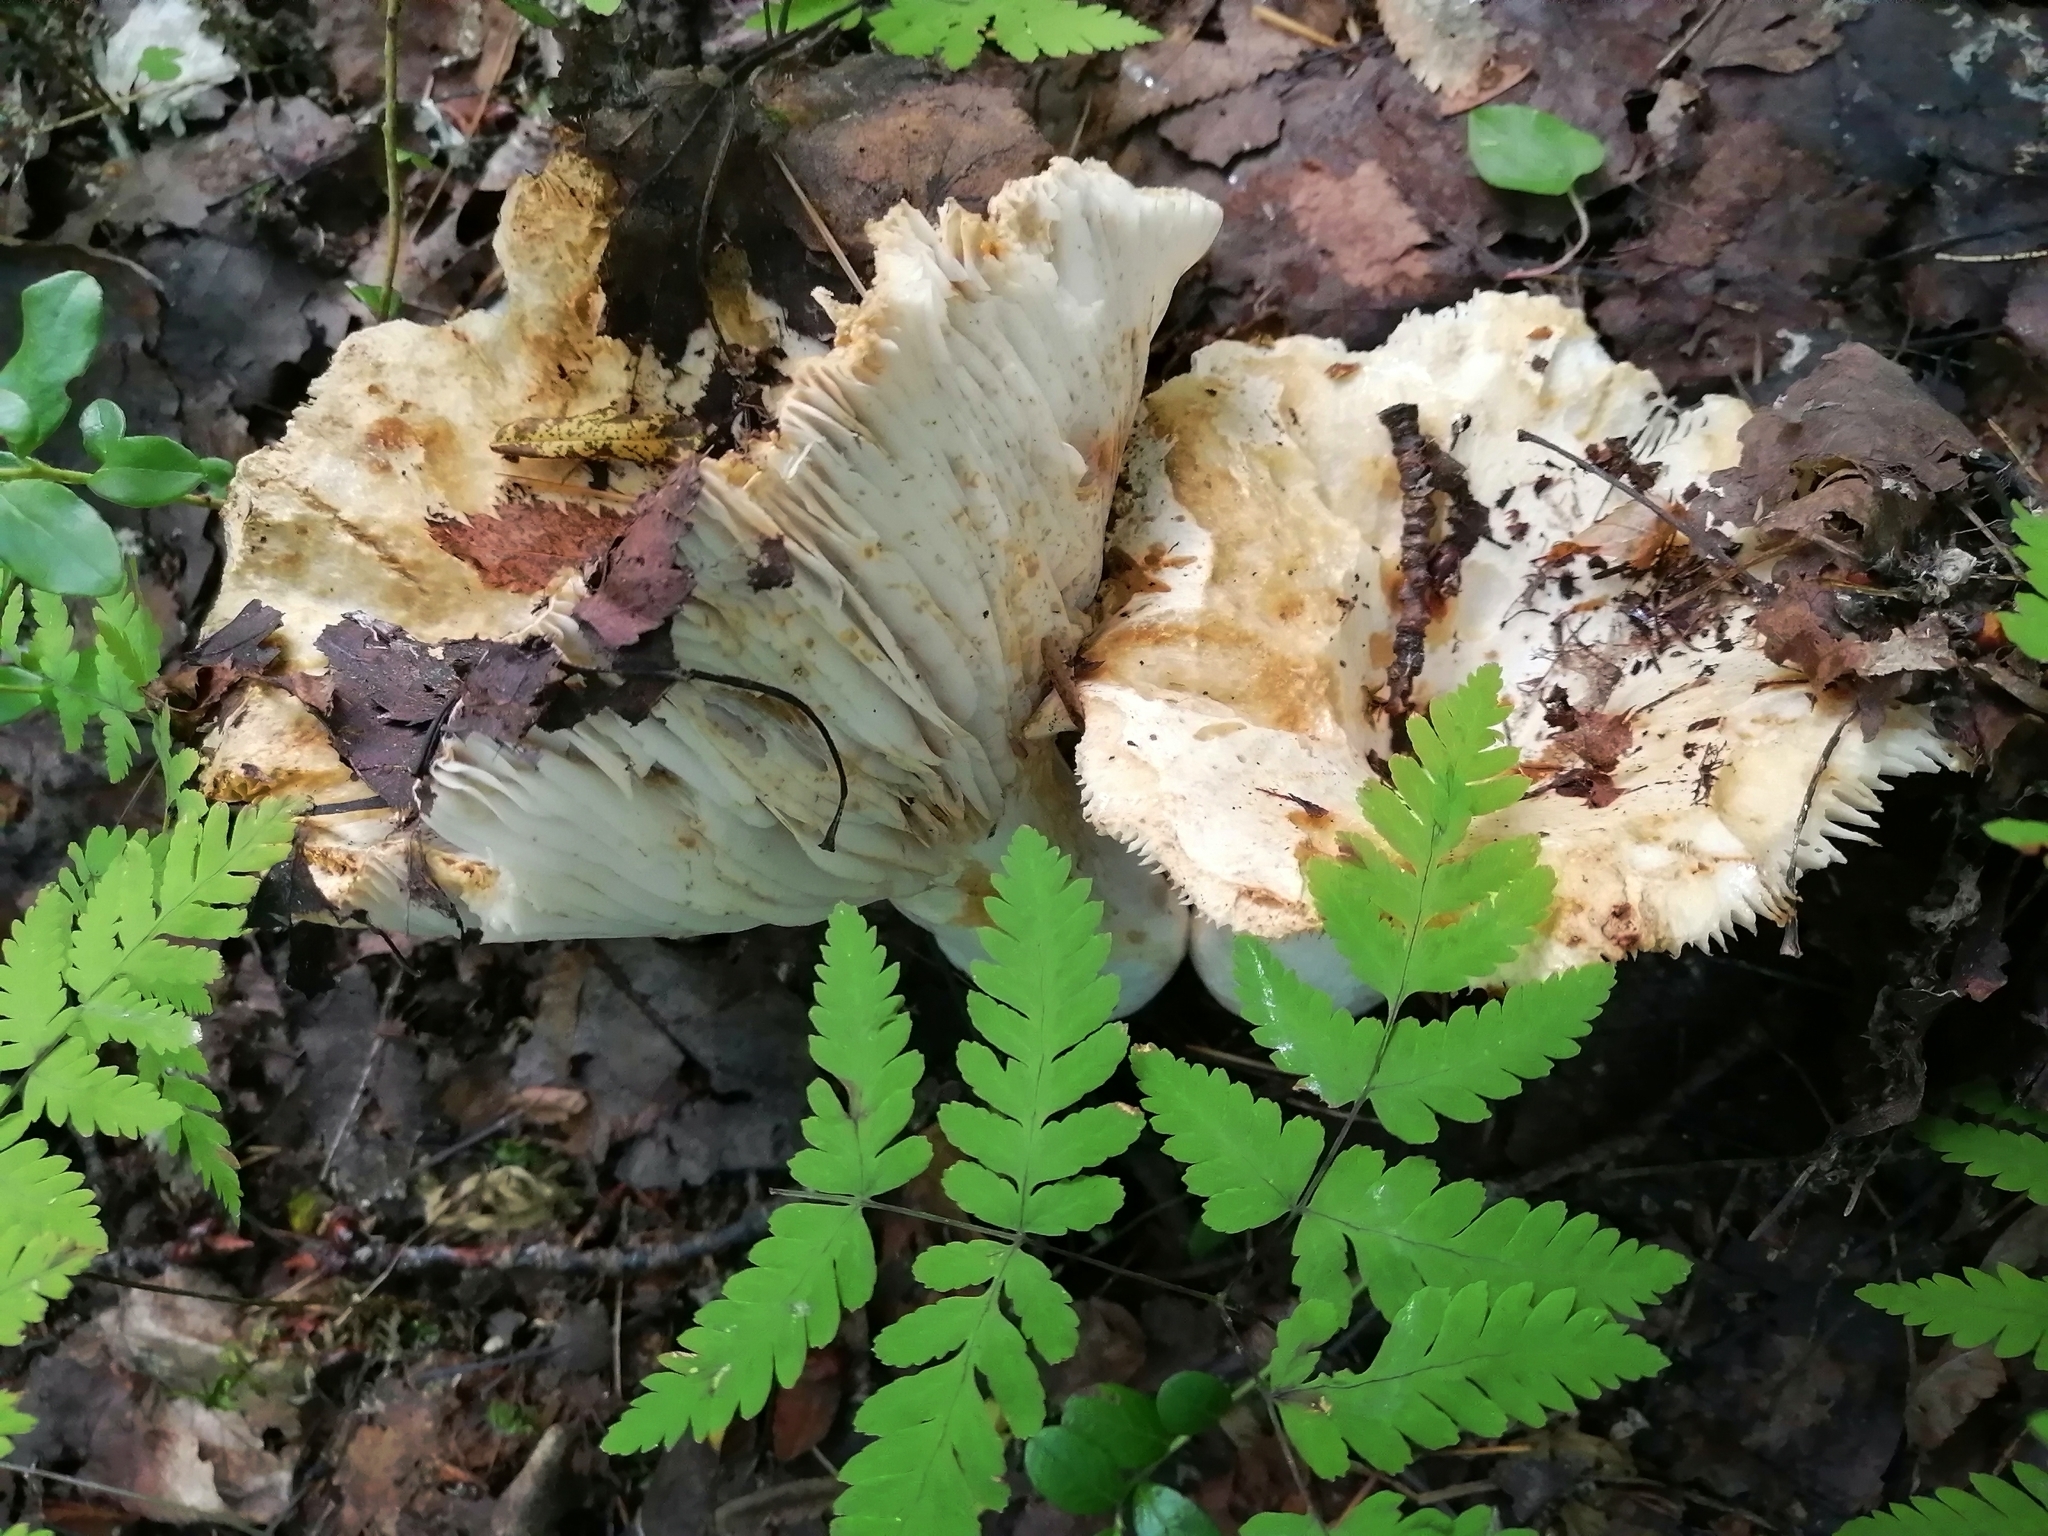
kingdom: Fungi
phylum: Basidiomycota
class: Agaricomycetes
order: Russulales
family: Russulaceae
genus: Russula
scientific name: Russula delica
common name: Milk white brittlegill
